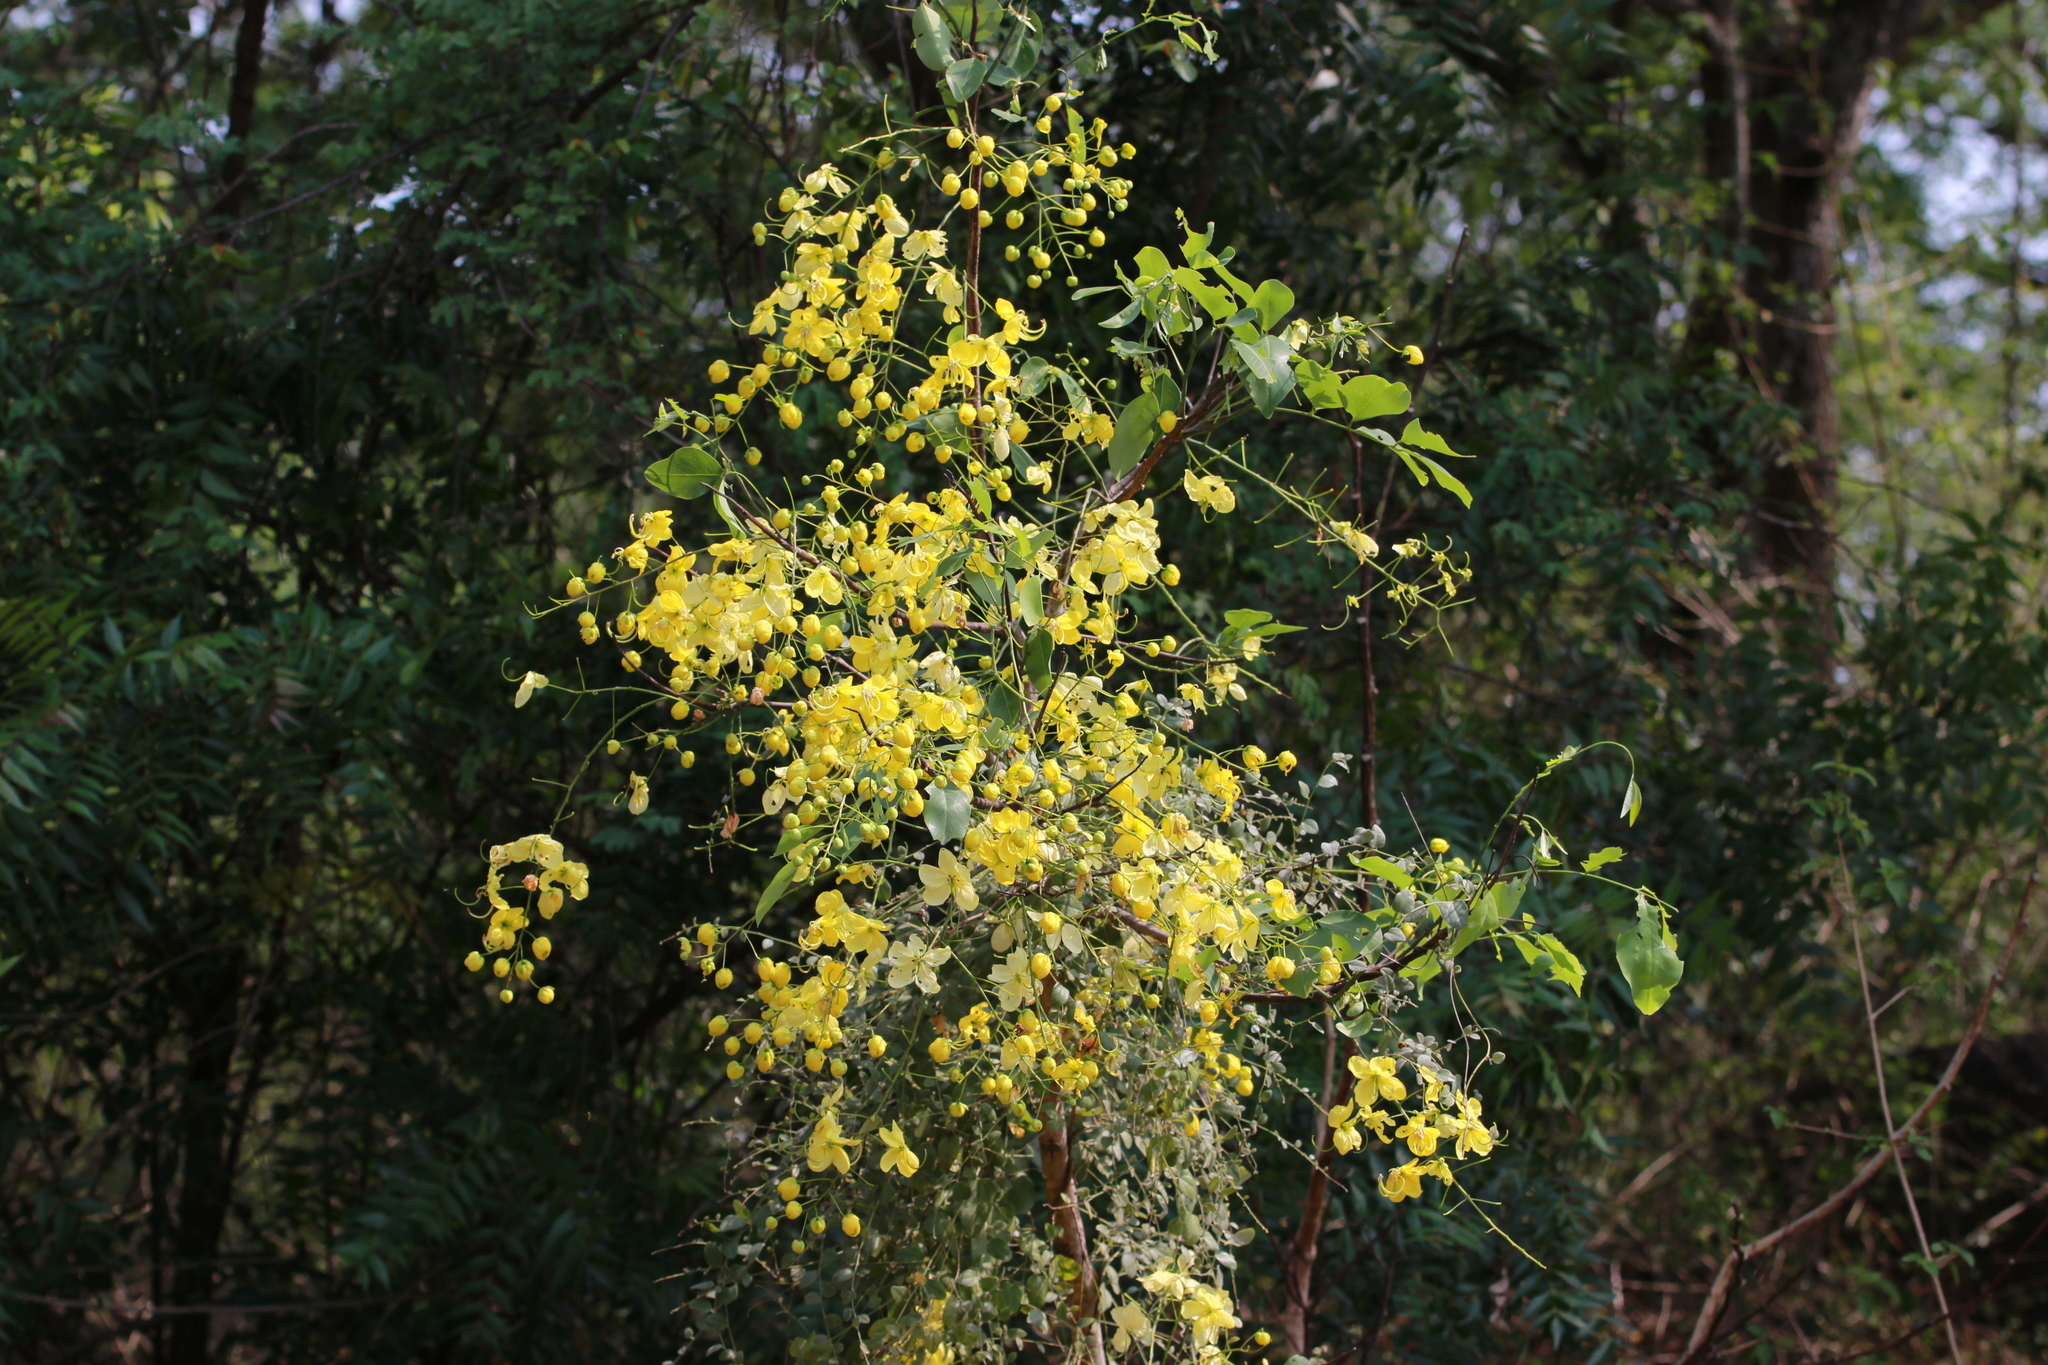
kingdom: Plantae
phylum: Tracheophyta
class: Magnoliopsida
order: Fabales
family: Fabaceae
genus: Cassia
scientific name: Cassia fistula
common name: Golden shower
